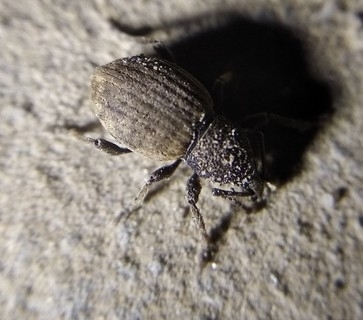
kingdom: Animalia
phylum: Arthropoda
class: Insecta
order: Coleoptera
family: Curculionidae
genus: Otiorhynchus
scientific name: Otiorhynchus raucus
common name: Weevil
